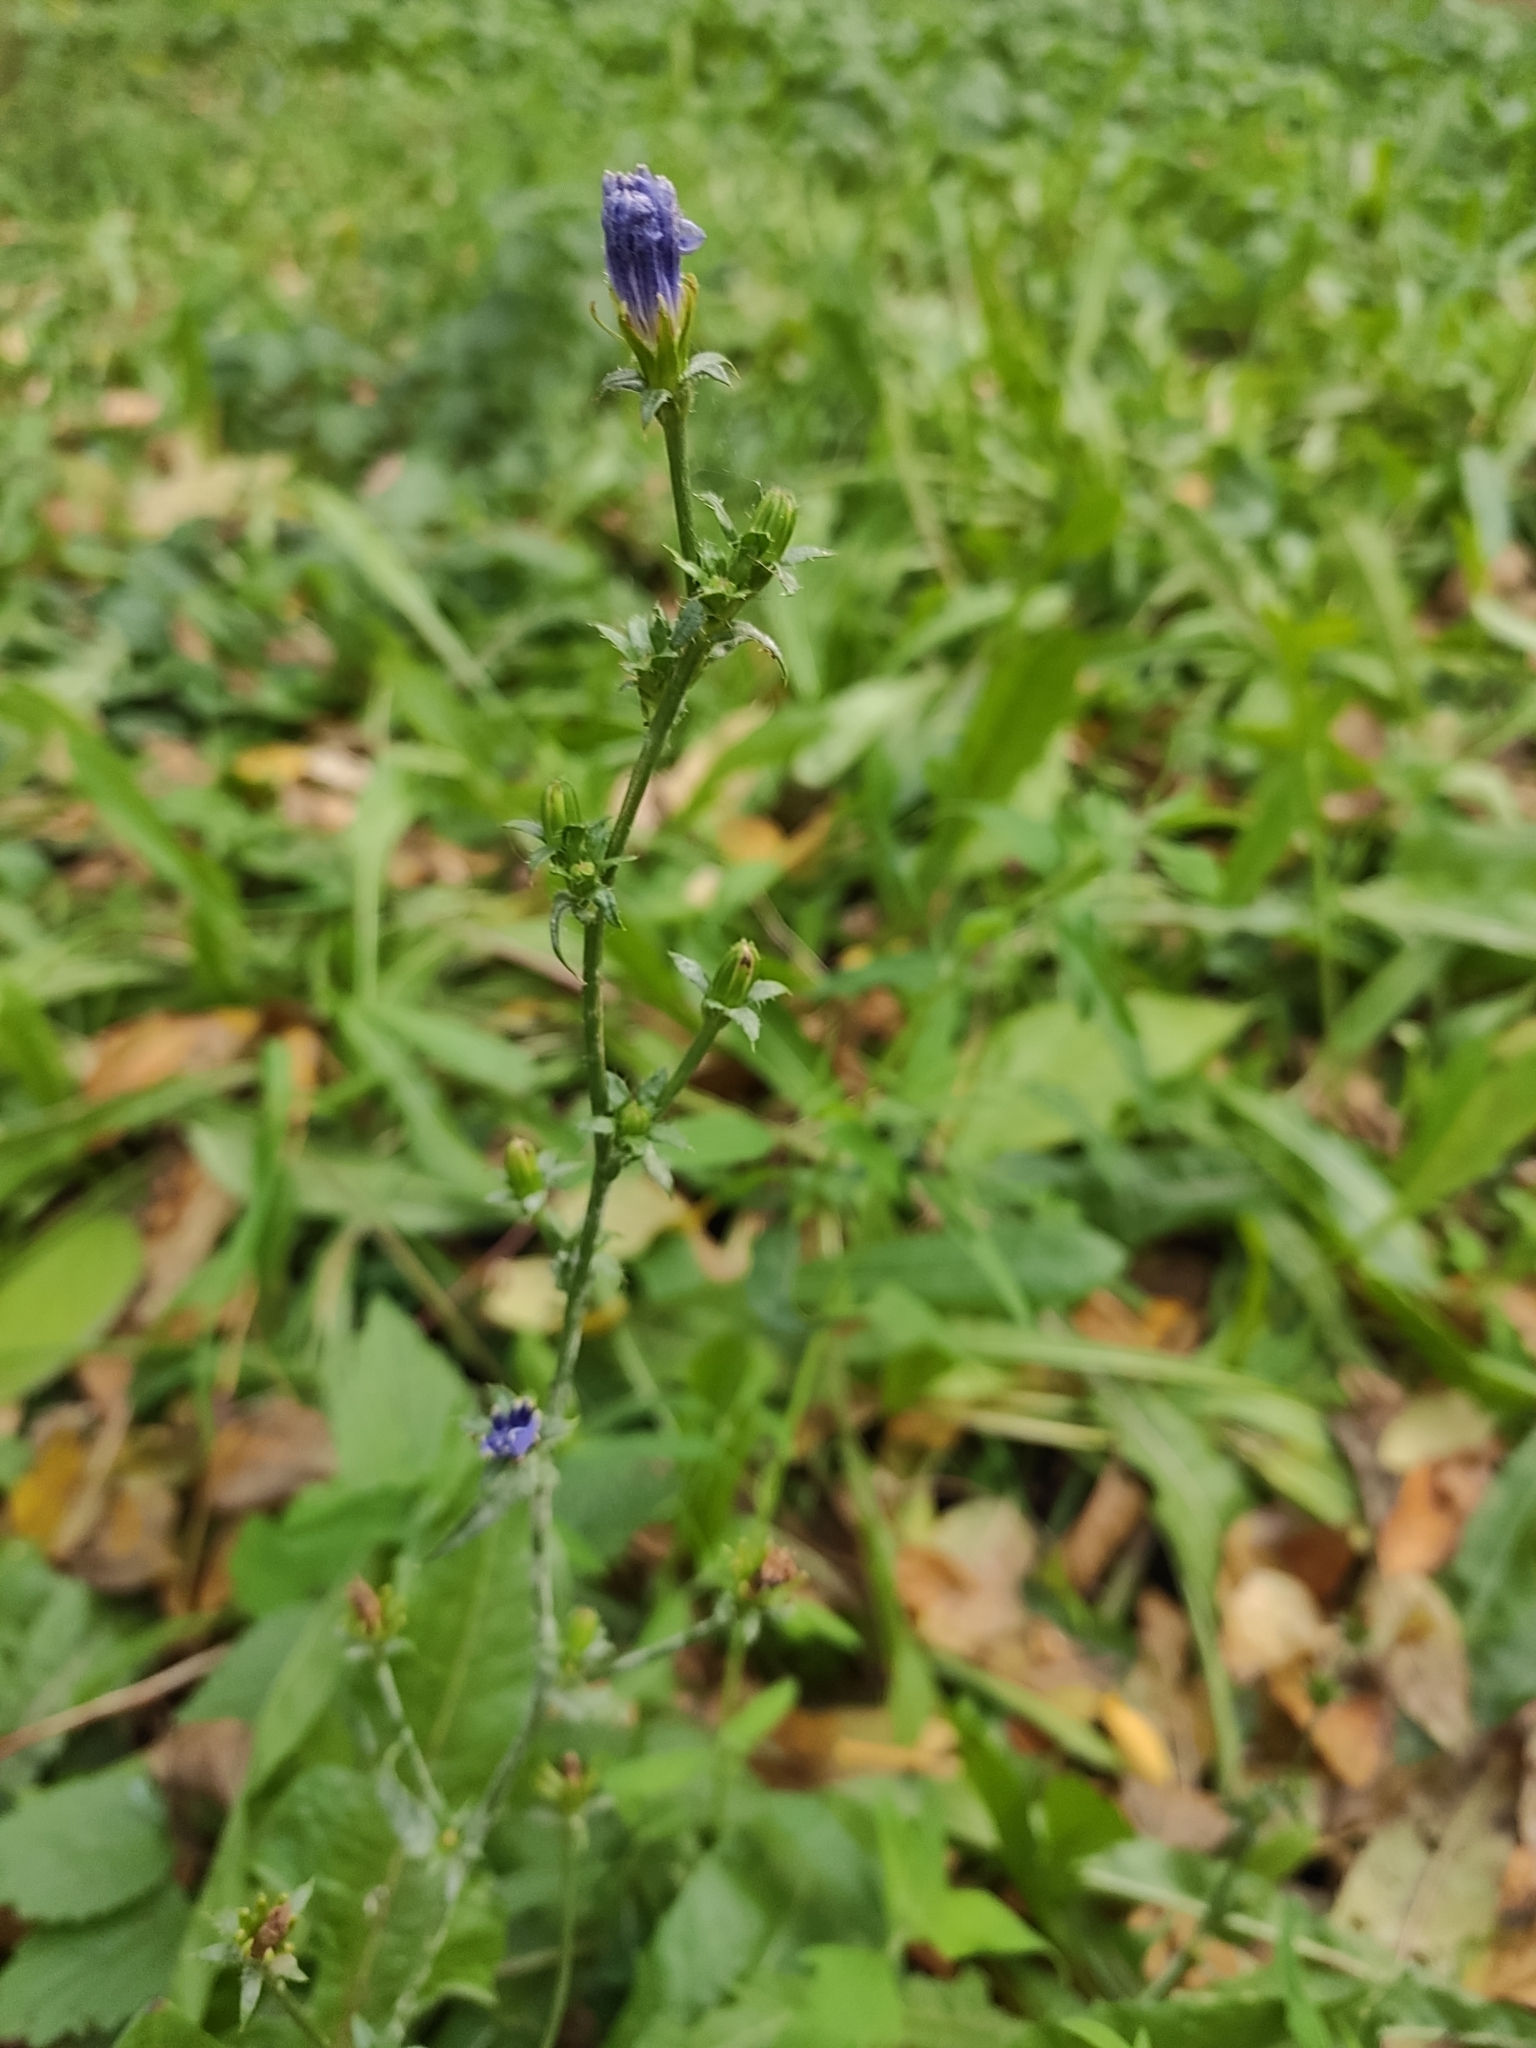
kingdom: Plantae
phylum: Tracheophyta
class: Magnoliopsida
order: Asterales
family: Asteraceae
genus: Cichorium
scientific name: Cichorium intybus
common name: Chicory
